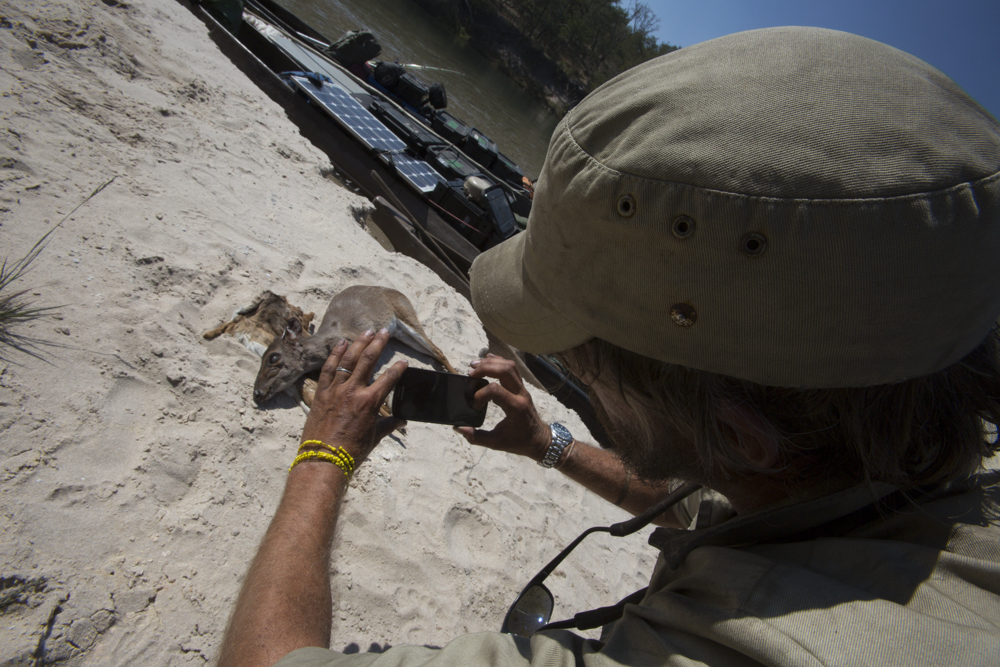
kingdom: Animalia
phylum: Chordata
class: Mammalia
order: Artiodactyla
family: Bovidae
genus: Philantomba
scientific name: Philantomba monticola
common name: Blue duiker
